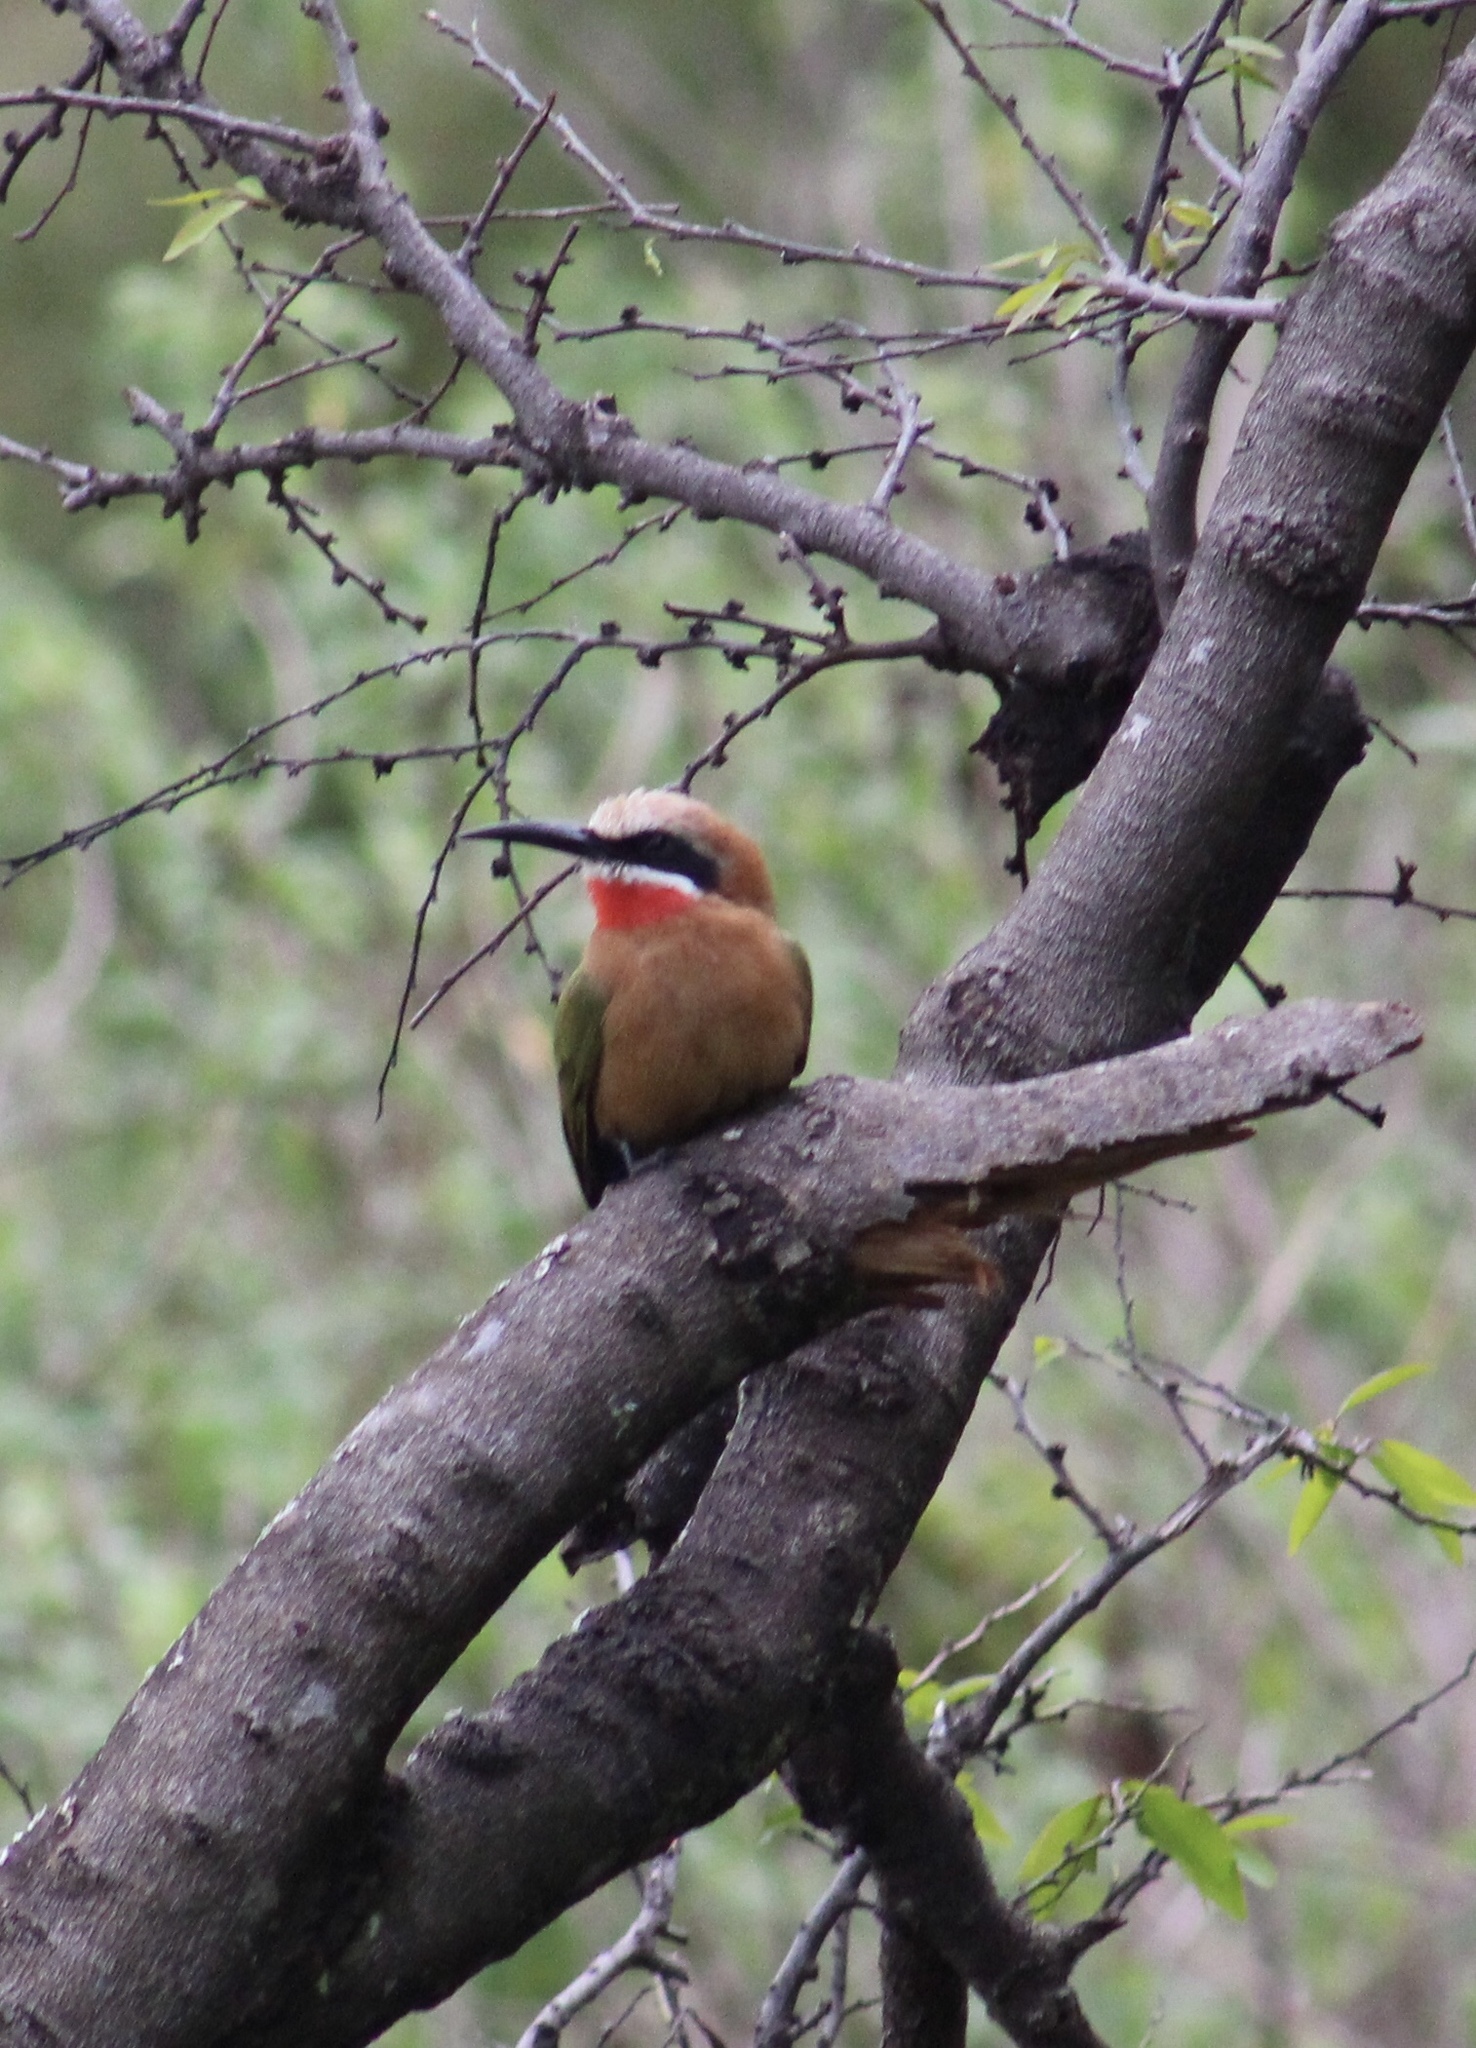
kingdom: Animalia
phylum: Chordata
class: Aves
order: Coraciiformes
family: Meropidae
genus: Merops
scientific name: Merops bullockoides
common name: White-fronted bee-eater
